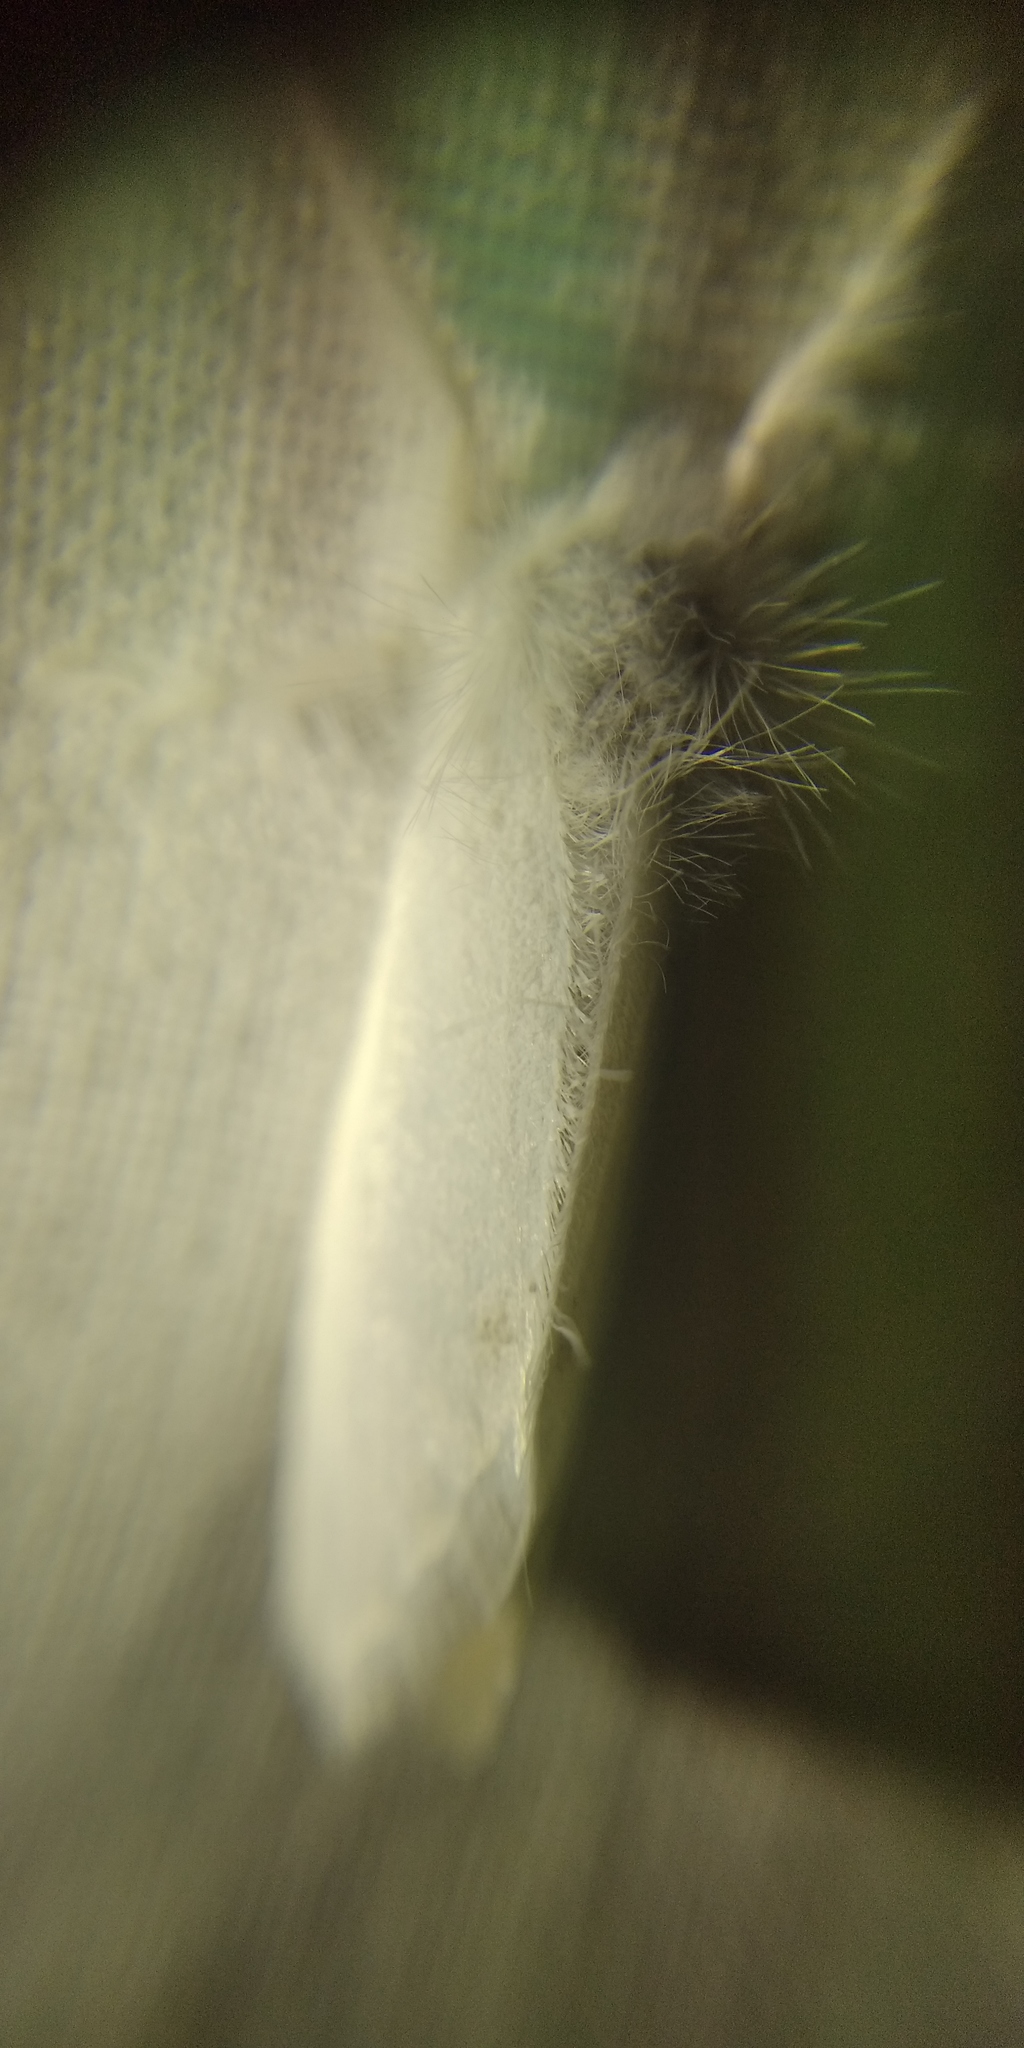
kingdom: Animalia
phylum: Arthropoda
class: Insecta
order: Lepidoptera
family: Erebidae
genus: Sphrageidus
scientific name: Sphrageidus similis
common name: Yellow-tail
